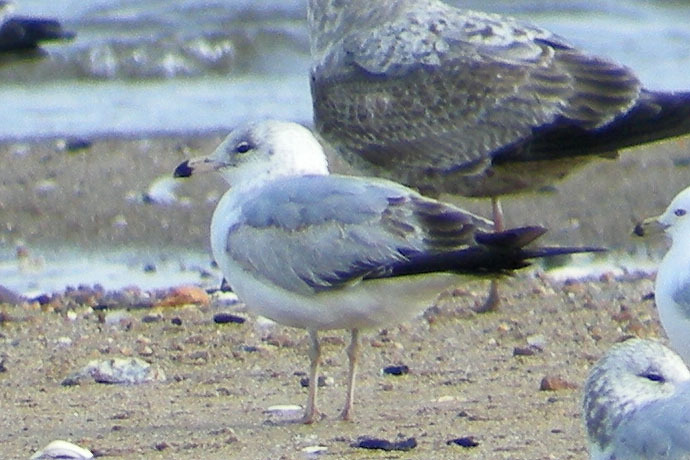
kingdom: Animalia
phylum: Chordata
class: Aves
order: Charadriiformes
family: Laridae
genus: Larus
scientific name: Larus delawarensis
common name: Ring-billed gull
